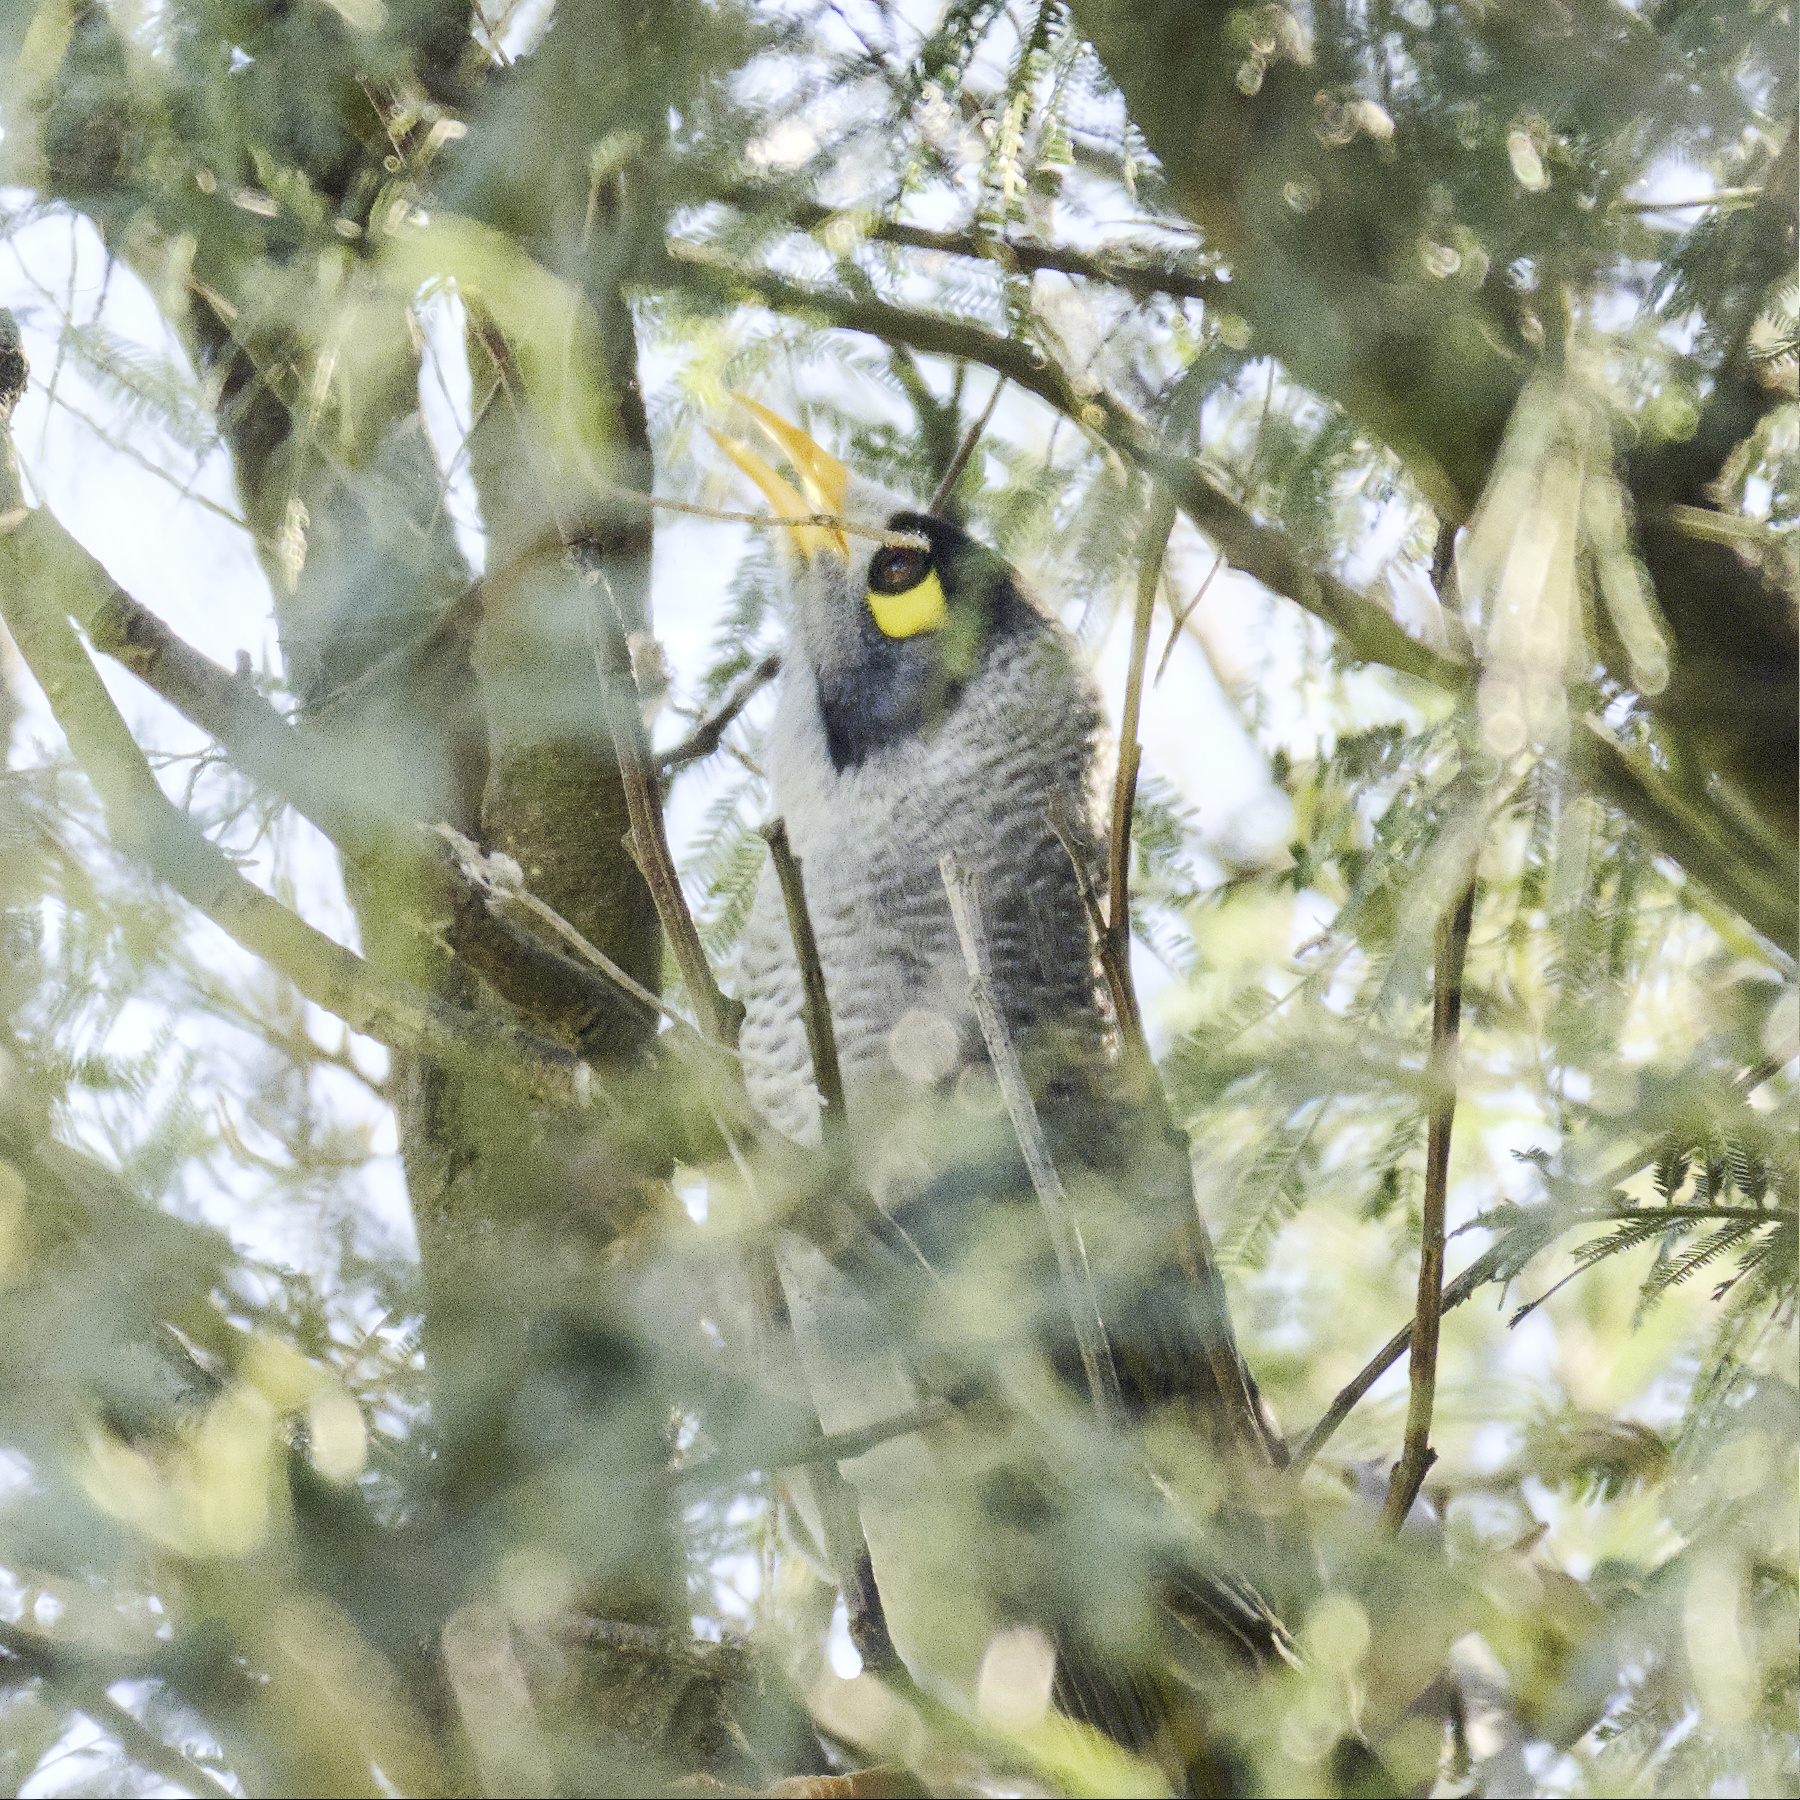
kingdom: Animalia
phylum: Chordata
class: Aves
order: Passeriformes
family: Meliphagidae
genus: Manorina
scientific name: Manorina melanocephala
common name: Noisy miner
